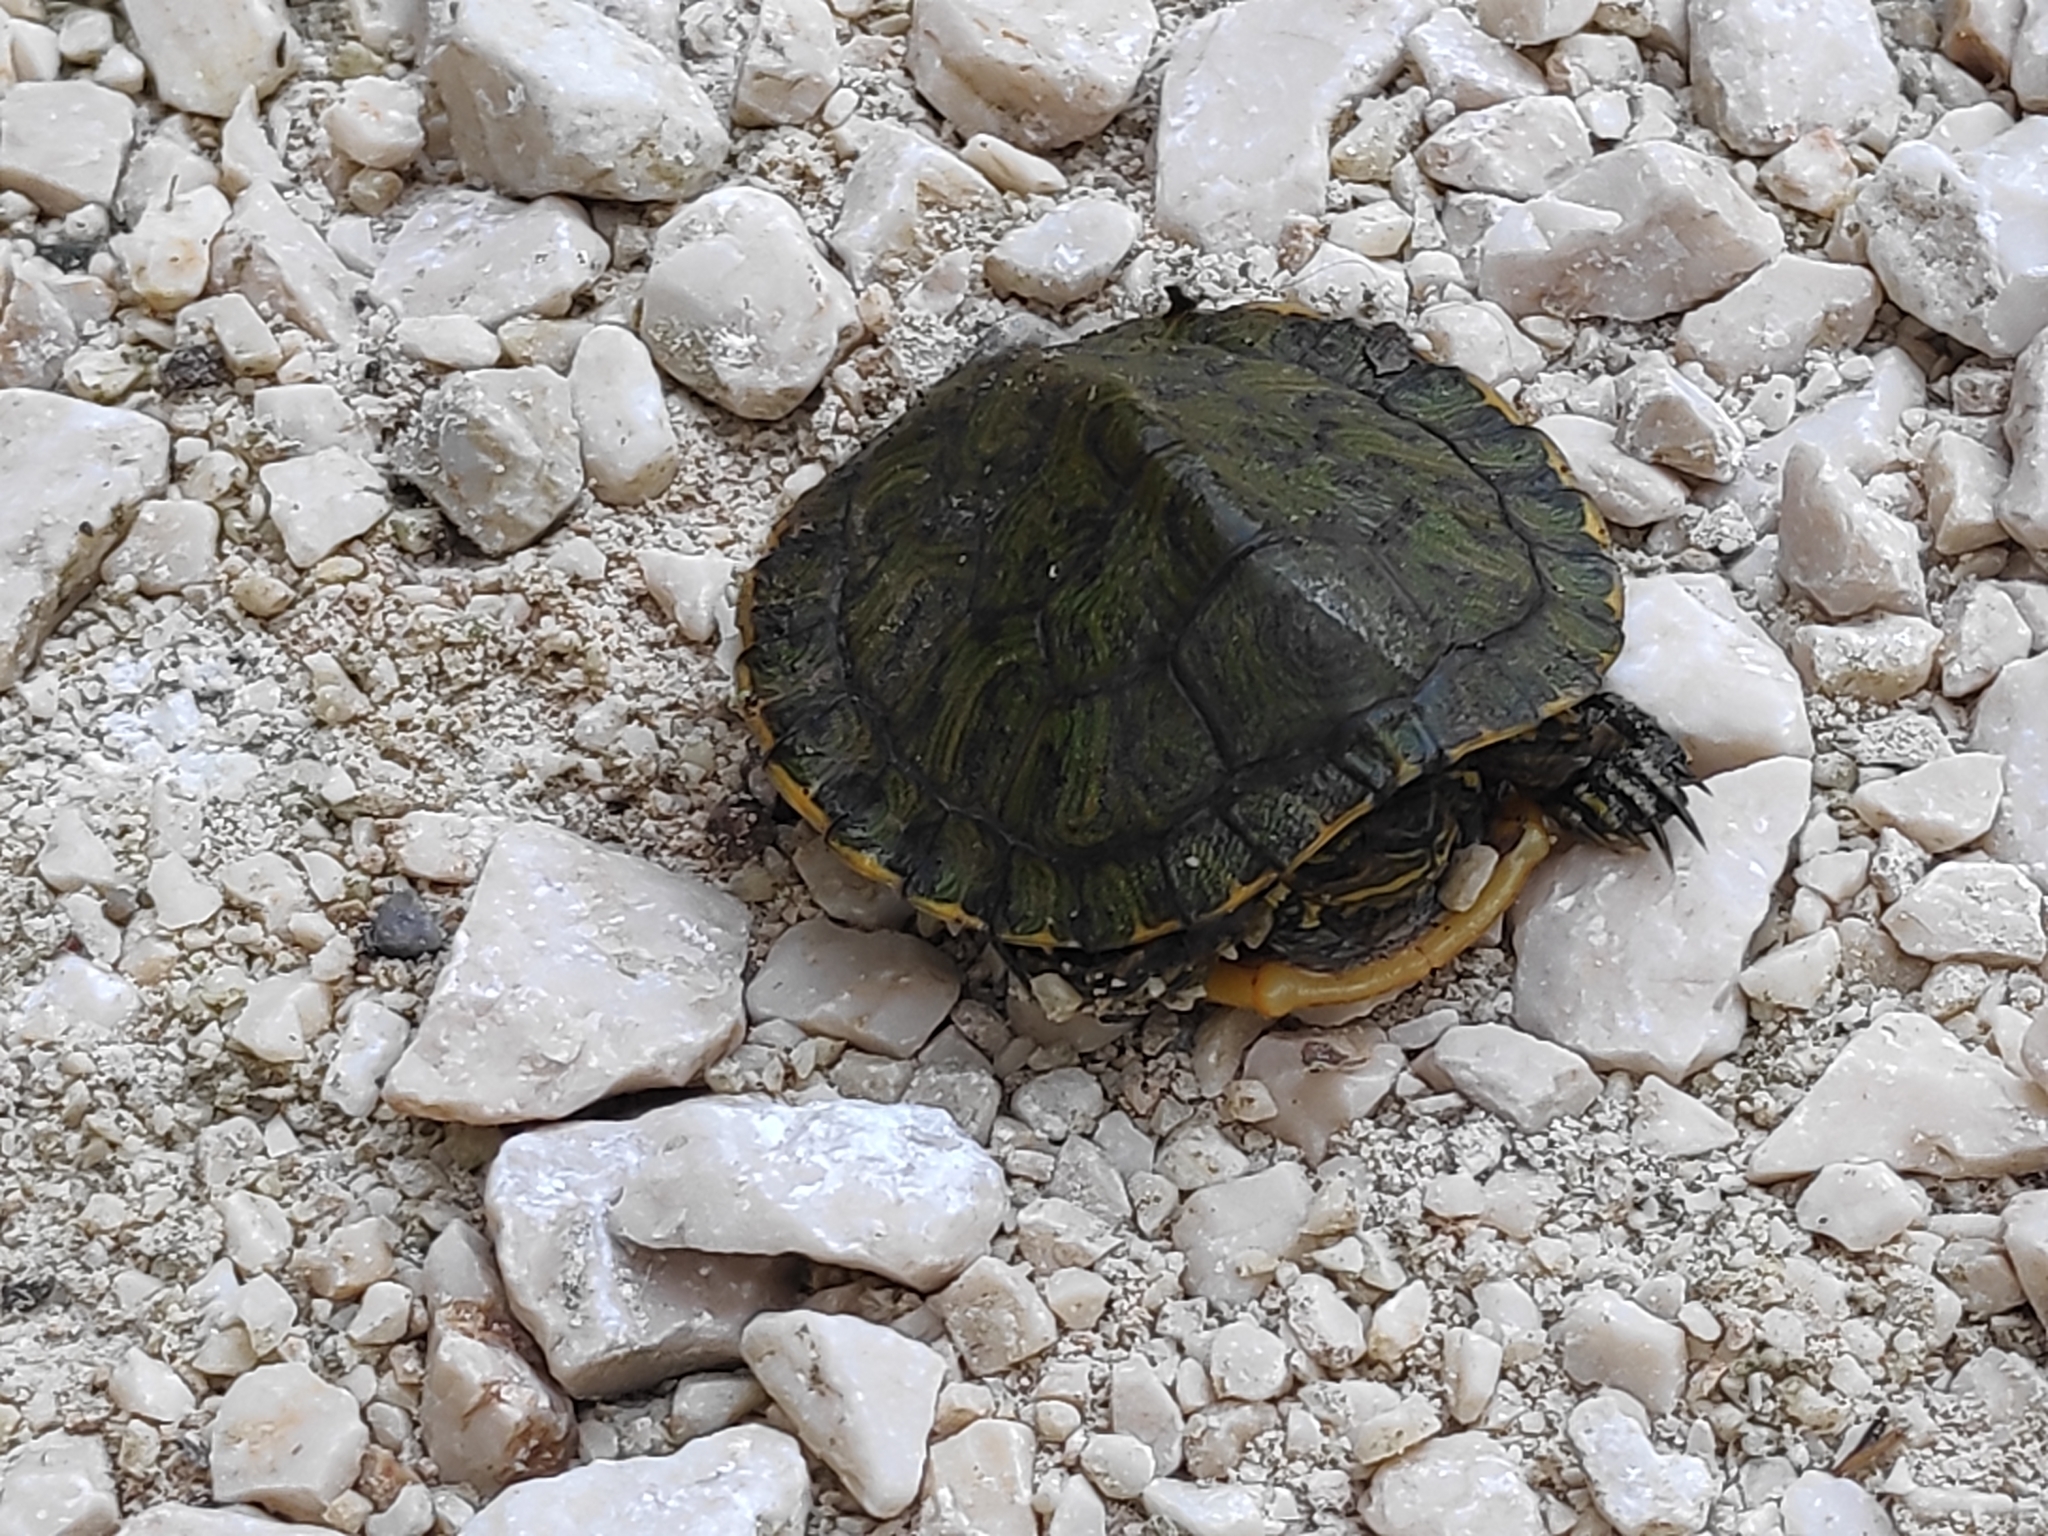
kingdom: Animalia
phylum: Chordata
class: Testudines
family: Emydidae
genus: Trachemys
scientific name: Trachemys scripta
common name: Slider
